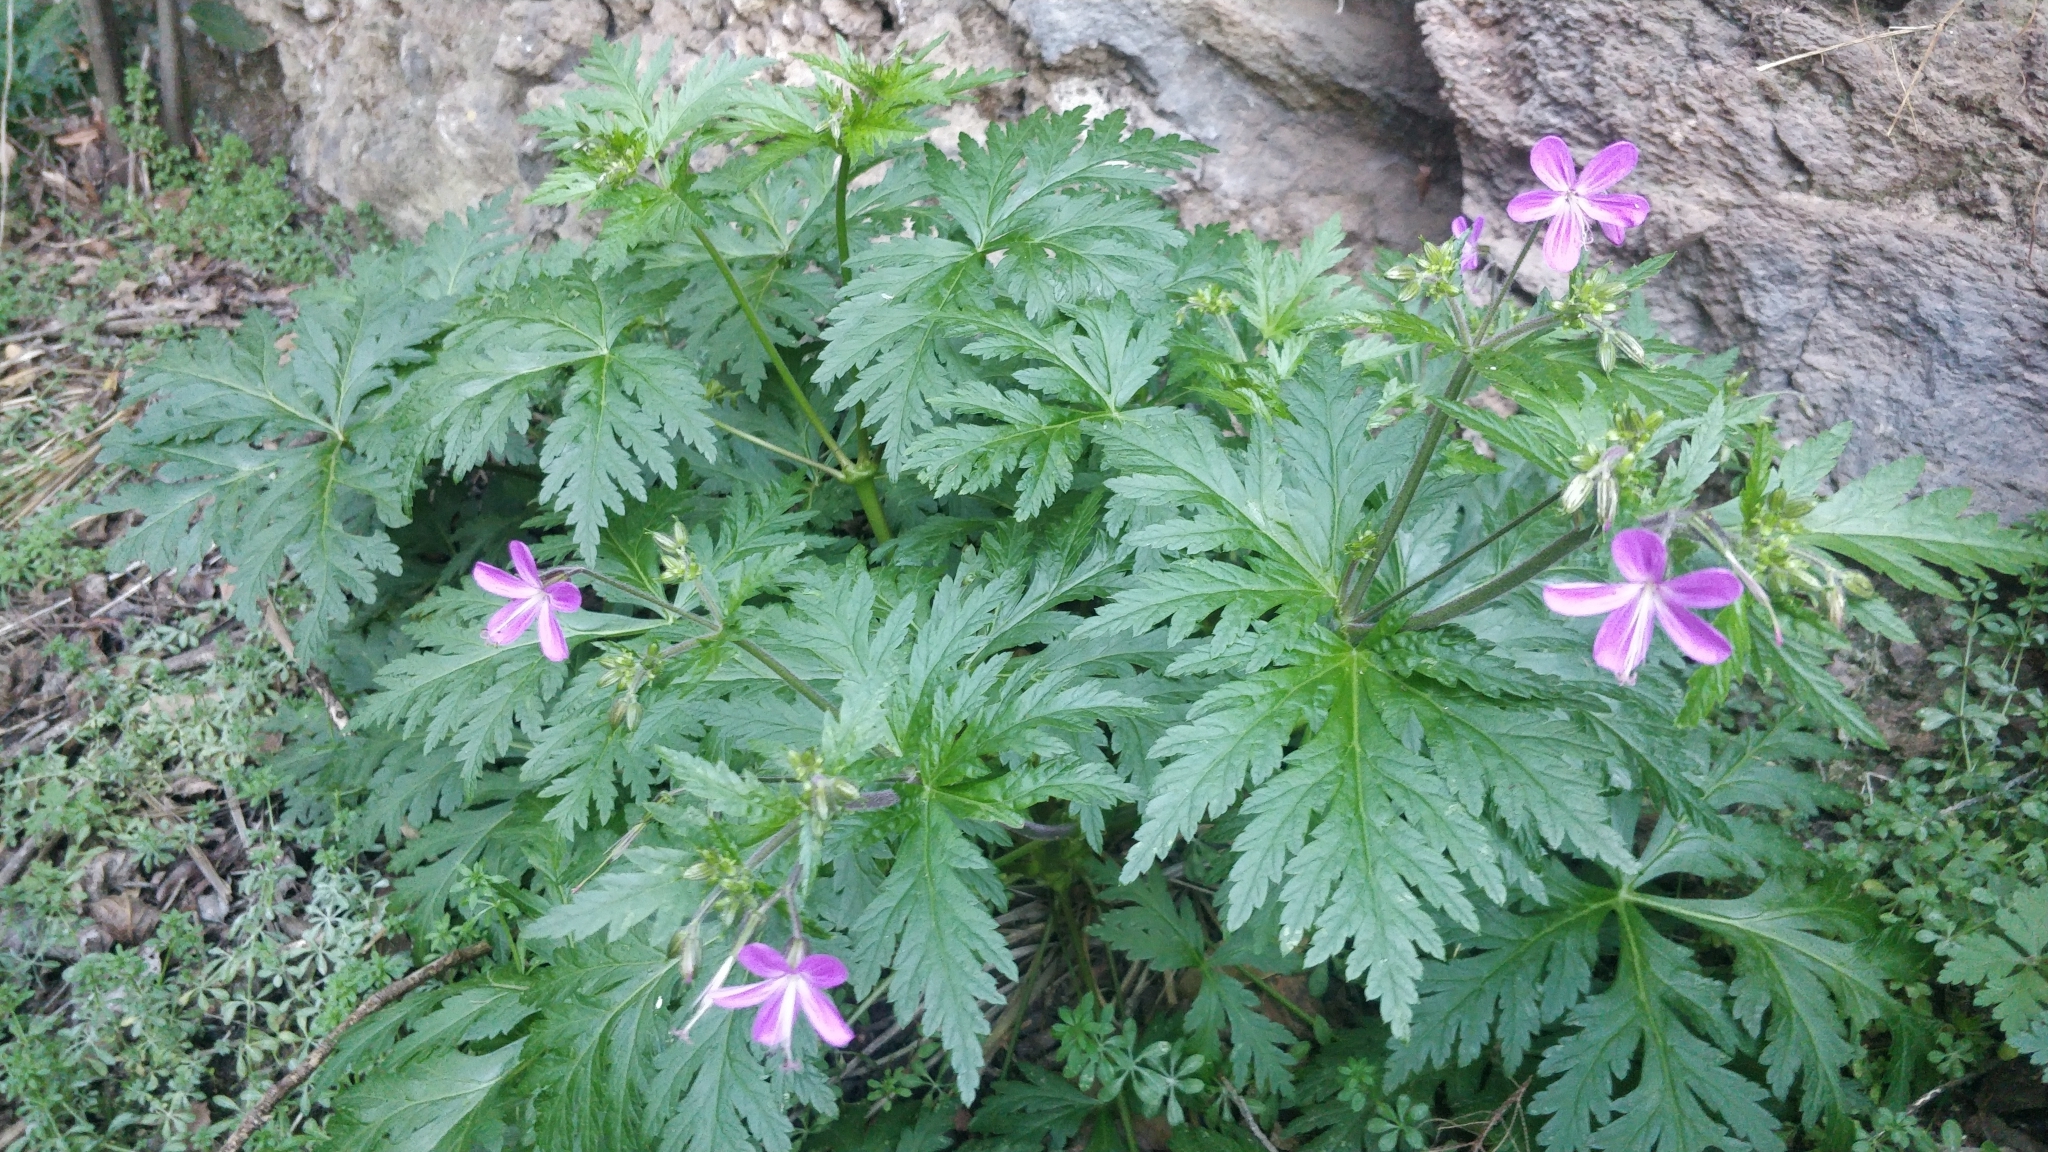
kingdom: Plantae
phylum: Tracheophyta
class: Magnoliopsida
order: Geraniales
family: Geraniaceae
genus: Geranium
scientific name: Geranium reuteri
